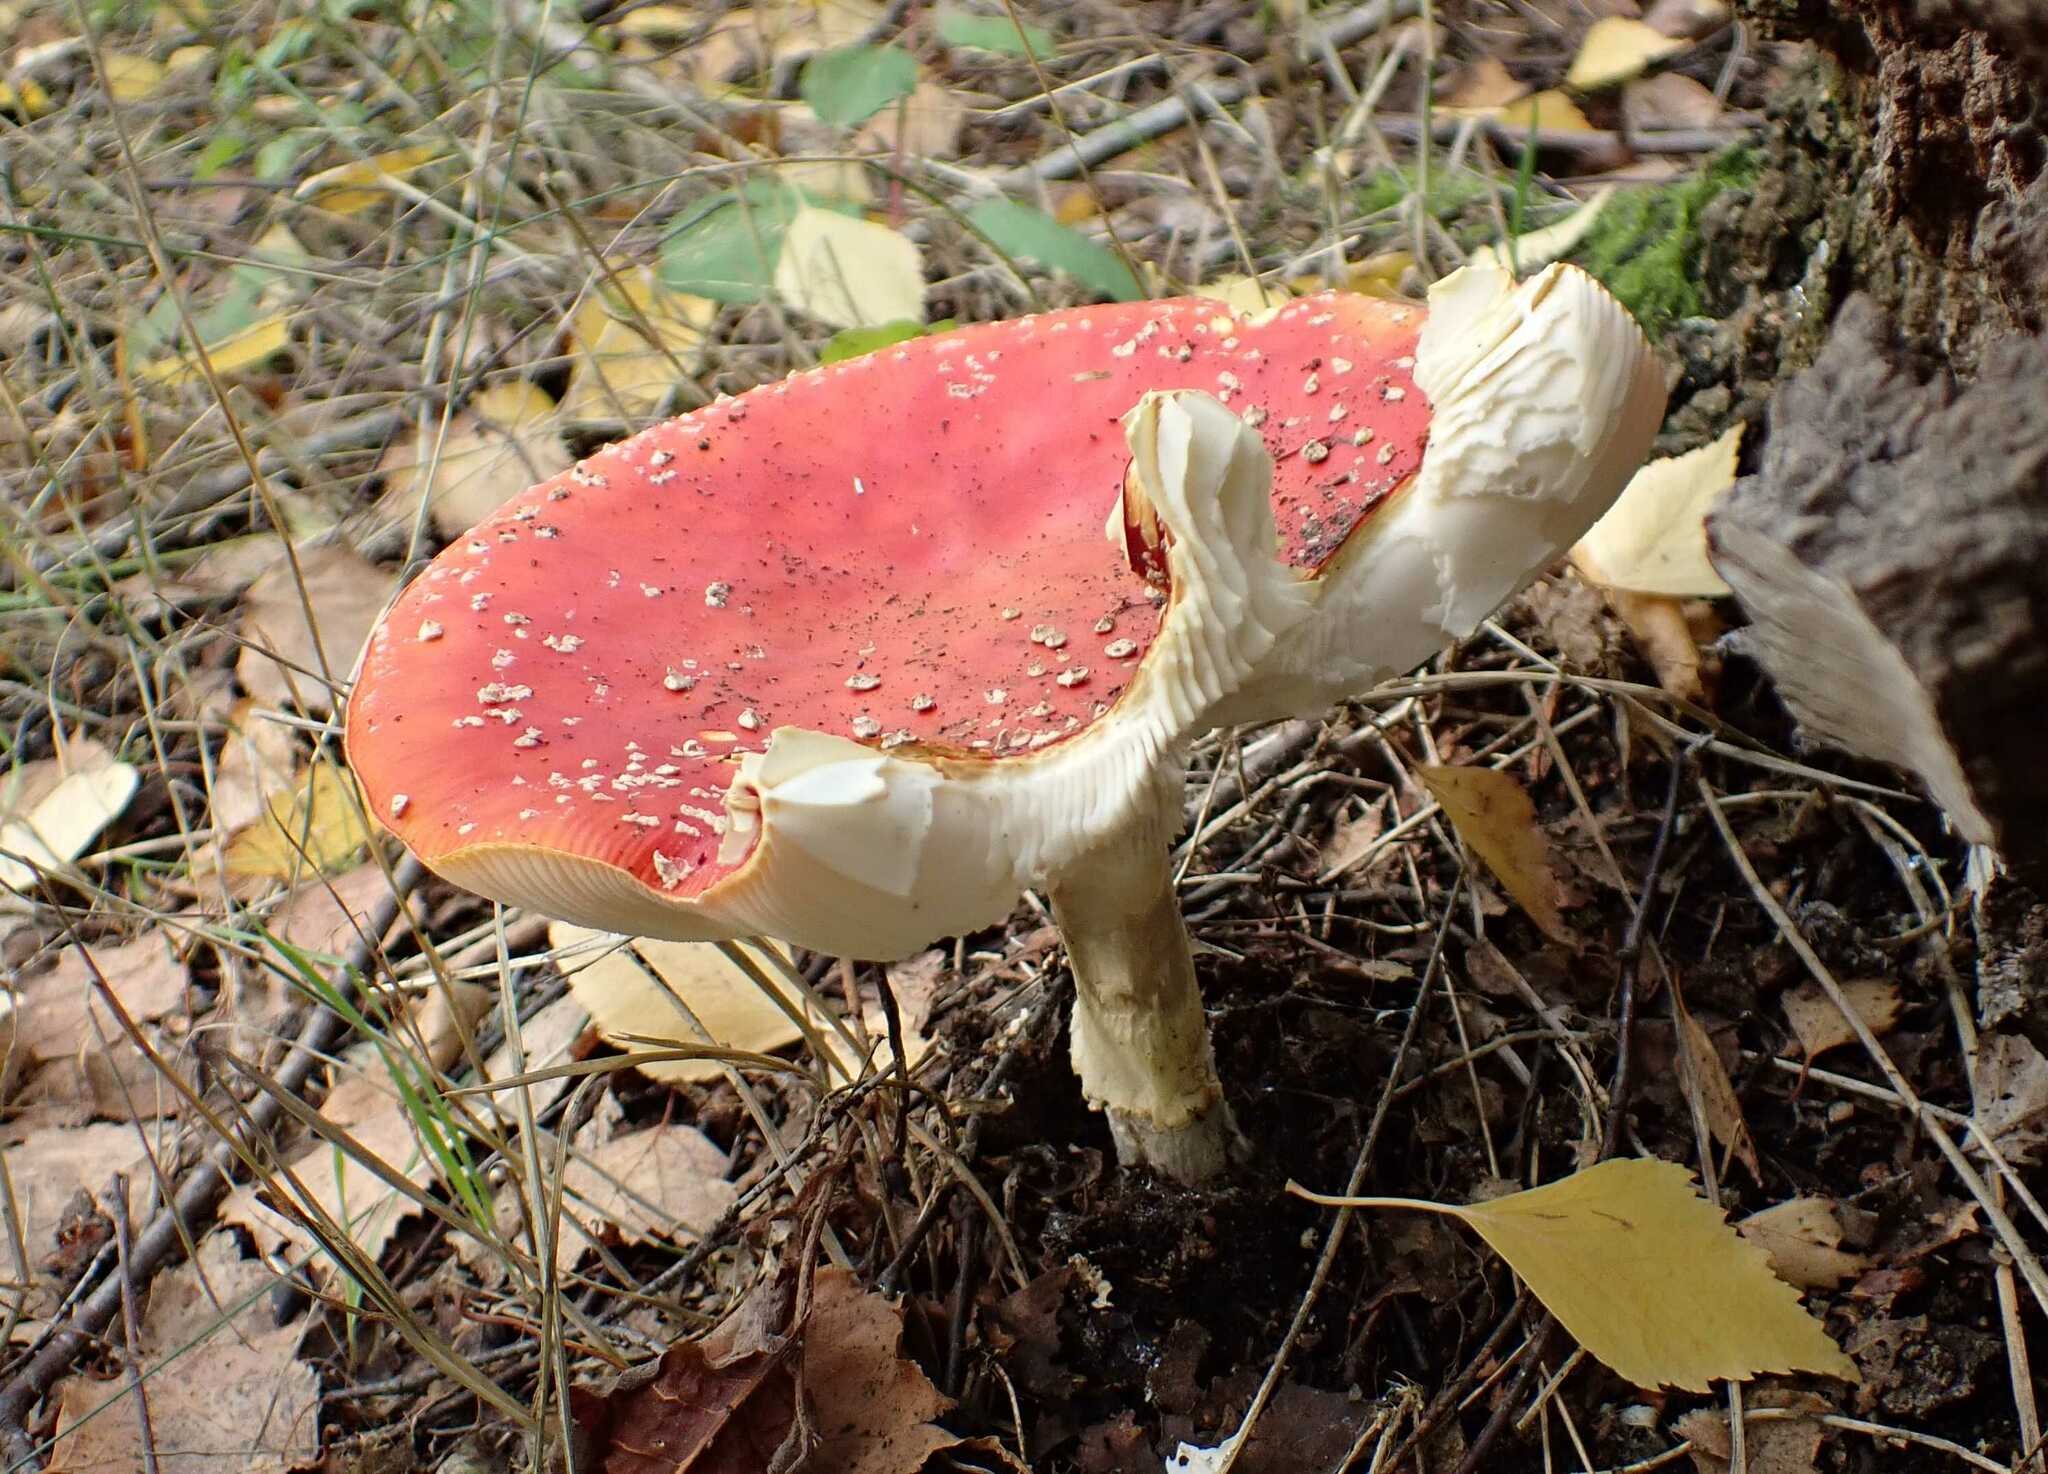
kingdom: Fungi
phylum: Basidiomycota
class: Agaricomycetes
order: Agaricales
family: Amanitaceae
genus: Amanita
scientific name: Amanita muscaria
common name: Fly agaric
